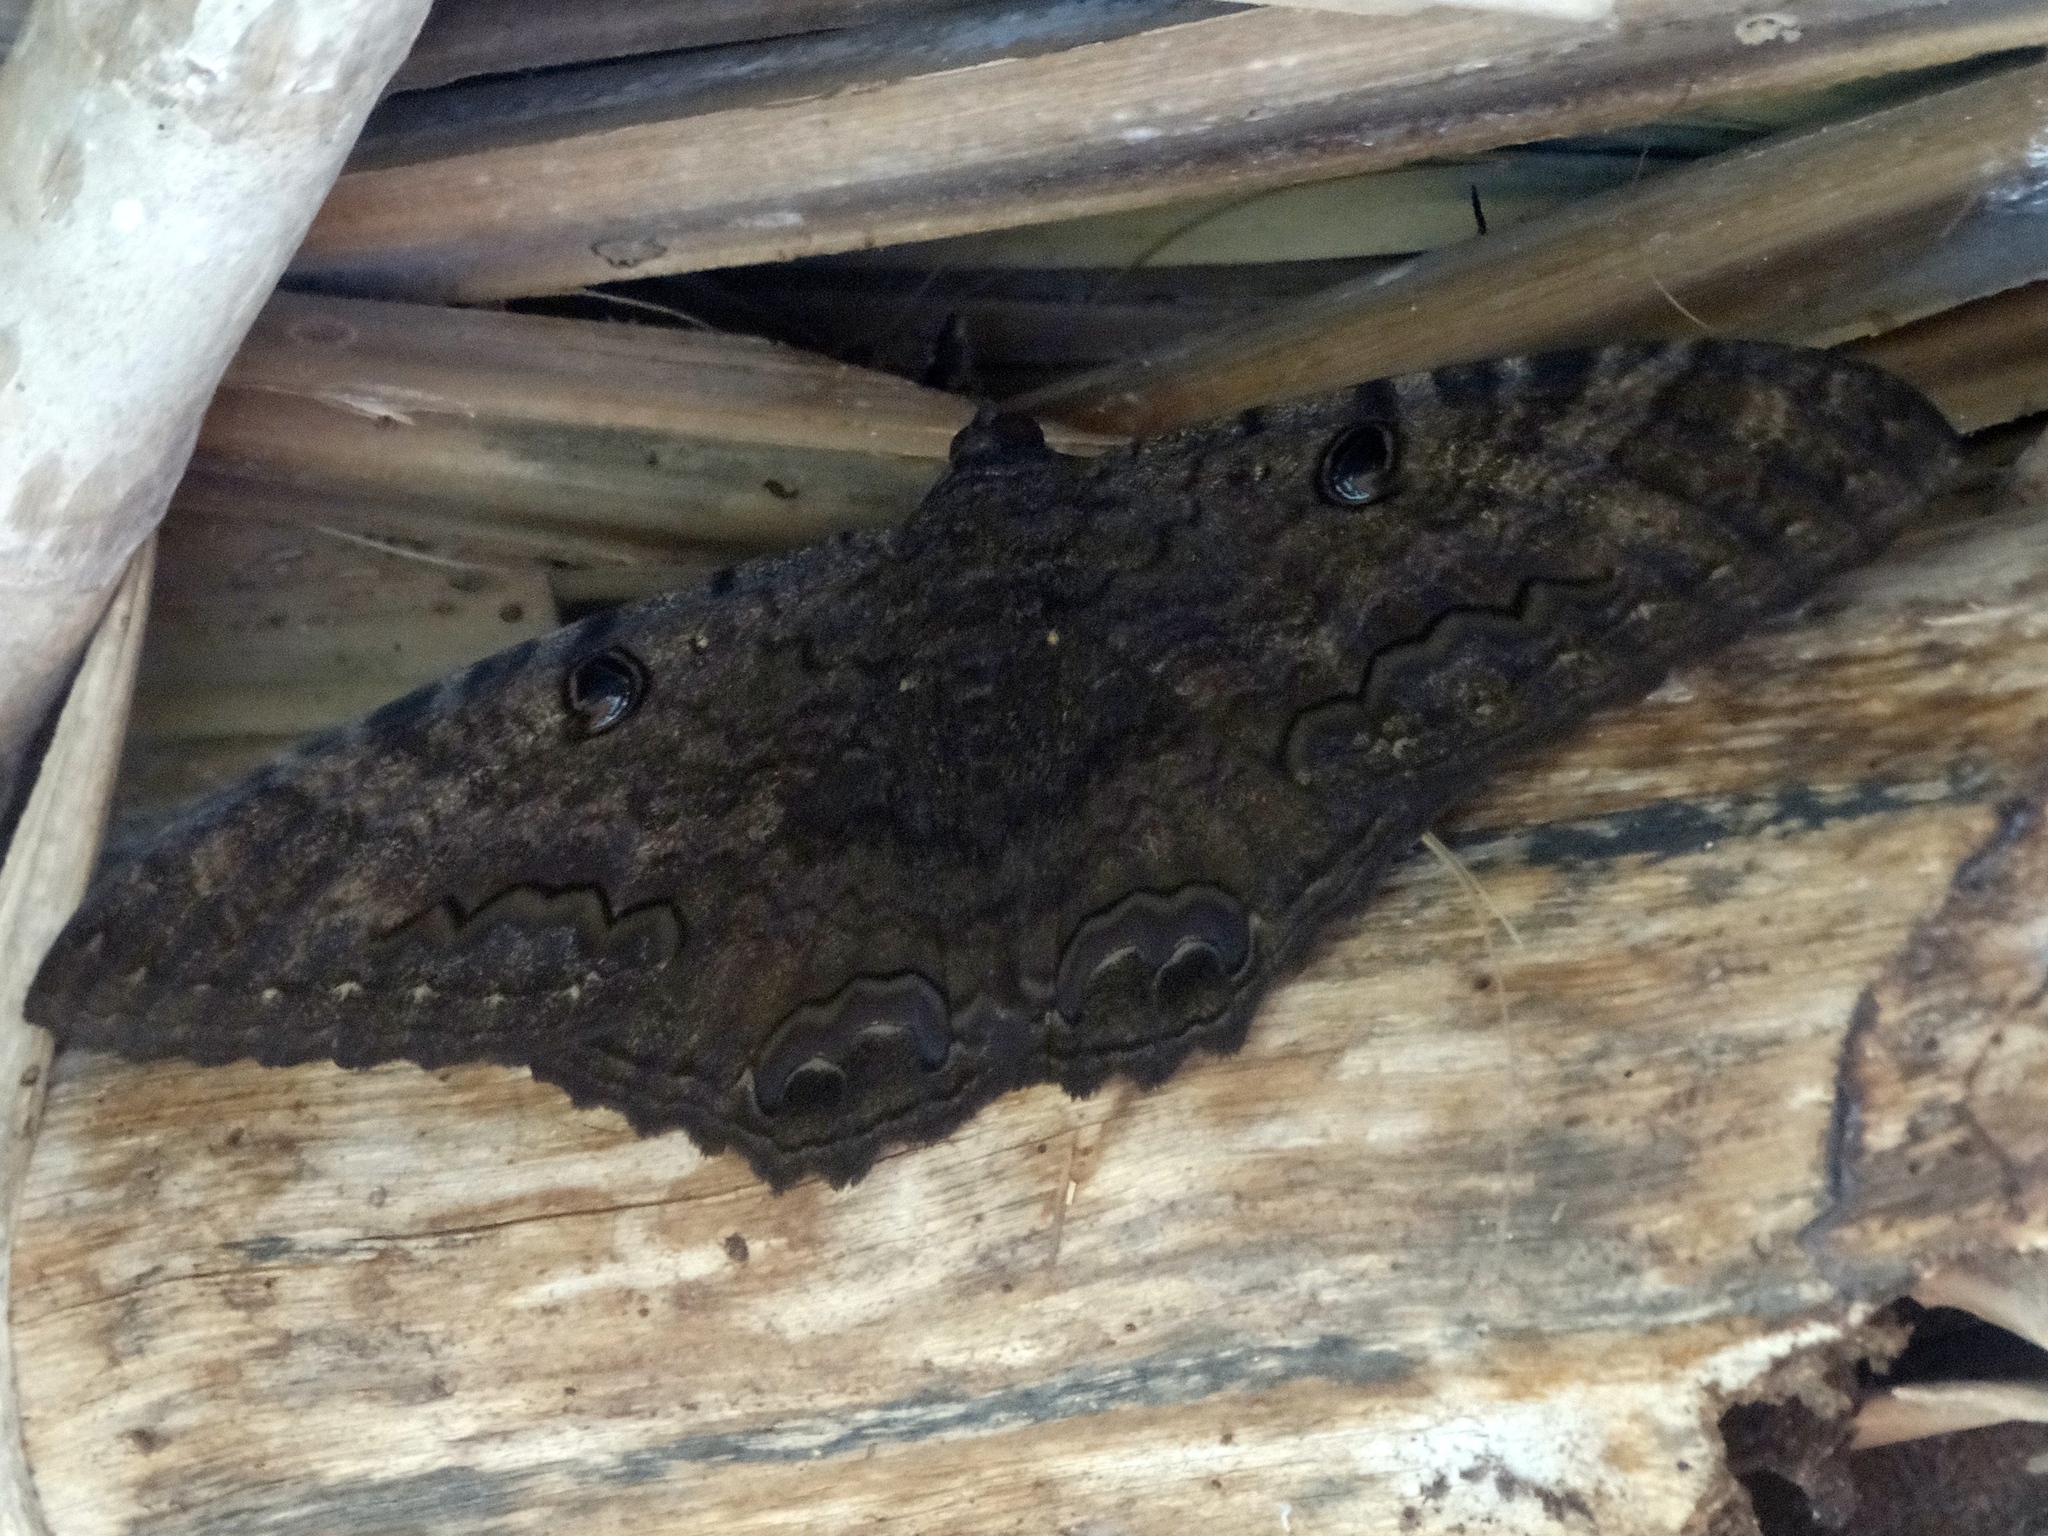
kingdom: Animalia
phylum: Arthropoda
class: Insecta
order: Lepidoptera
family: Erebidae
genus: Ascalapha
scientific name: Ascalapha odorata
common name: Black witch
